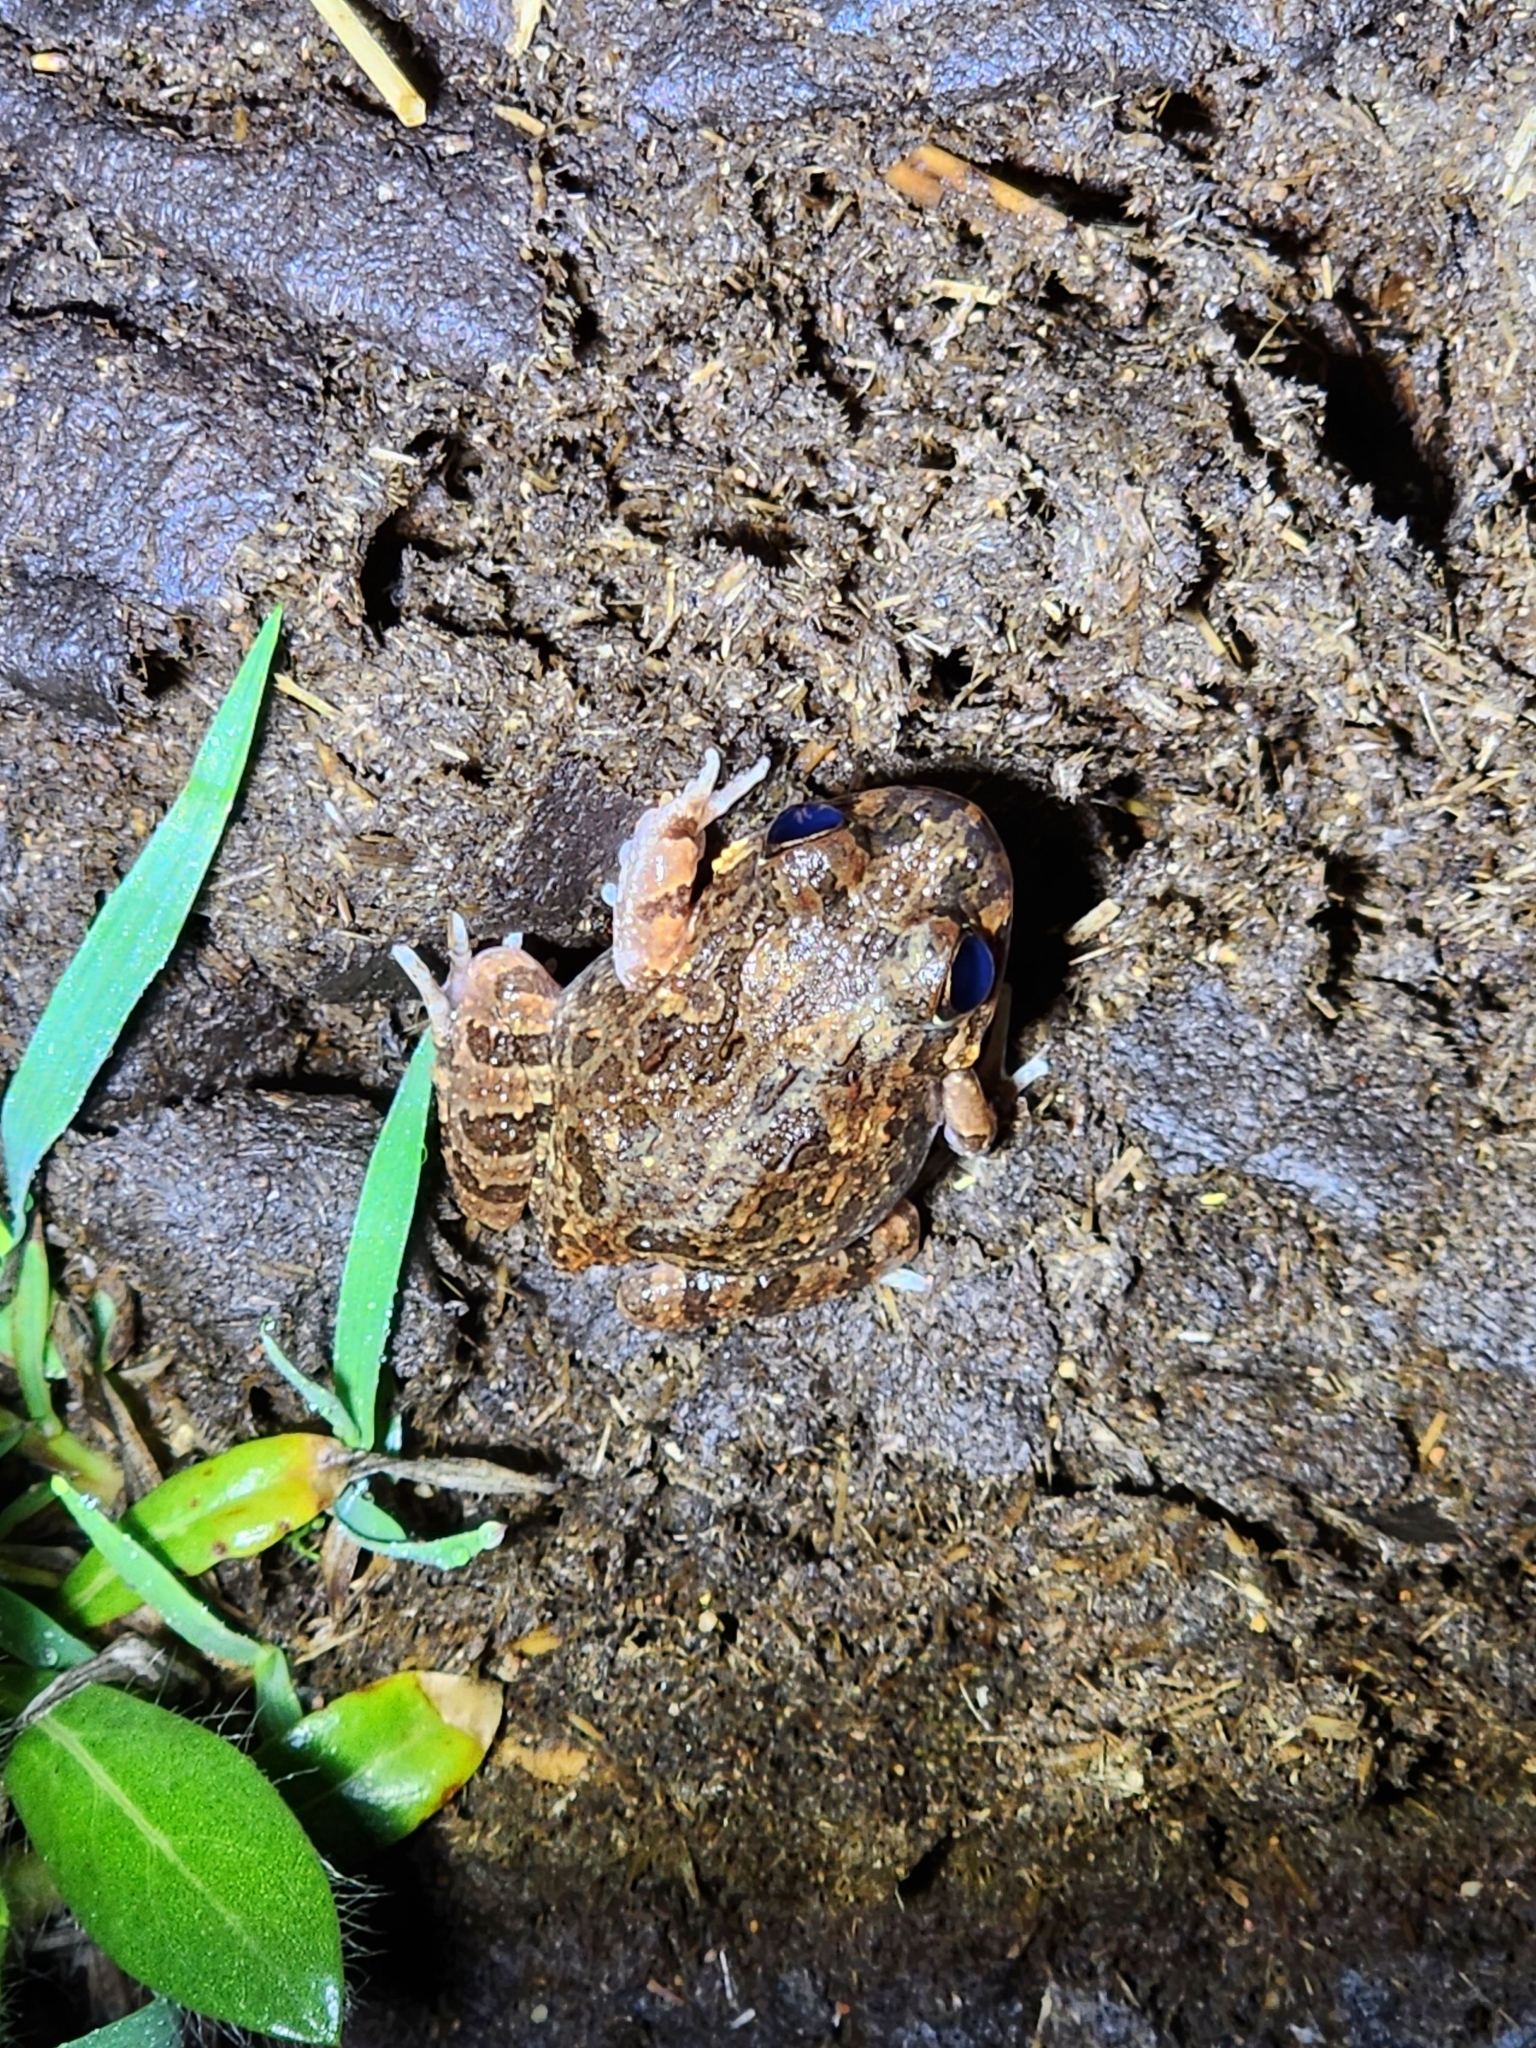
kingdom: Animalia
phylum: Chordata
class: Amphibia
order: Anura
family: Limnodynastidae
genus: Platyplectrum
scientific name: Platyplectrum ornatum
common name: Ornate burrowing frog
